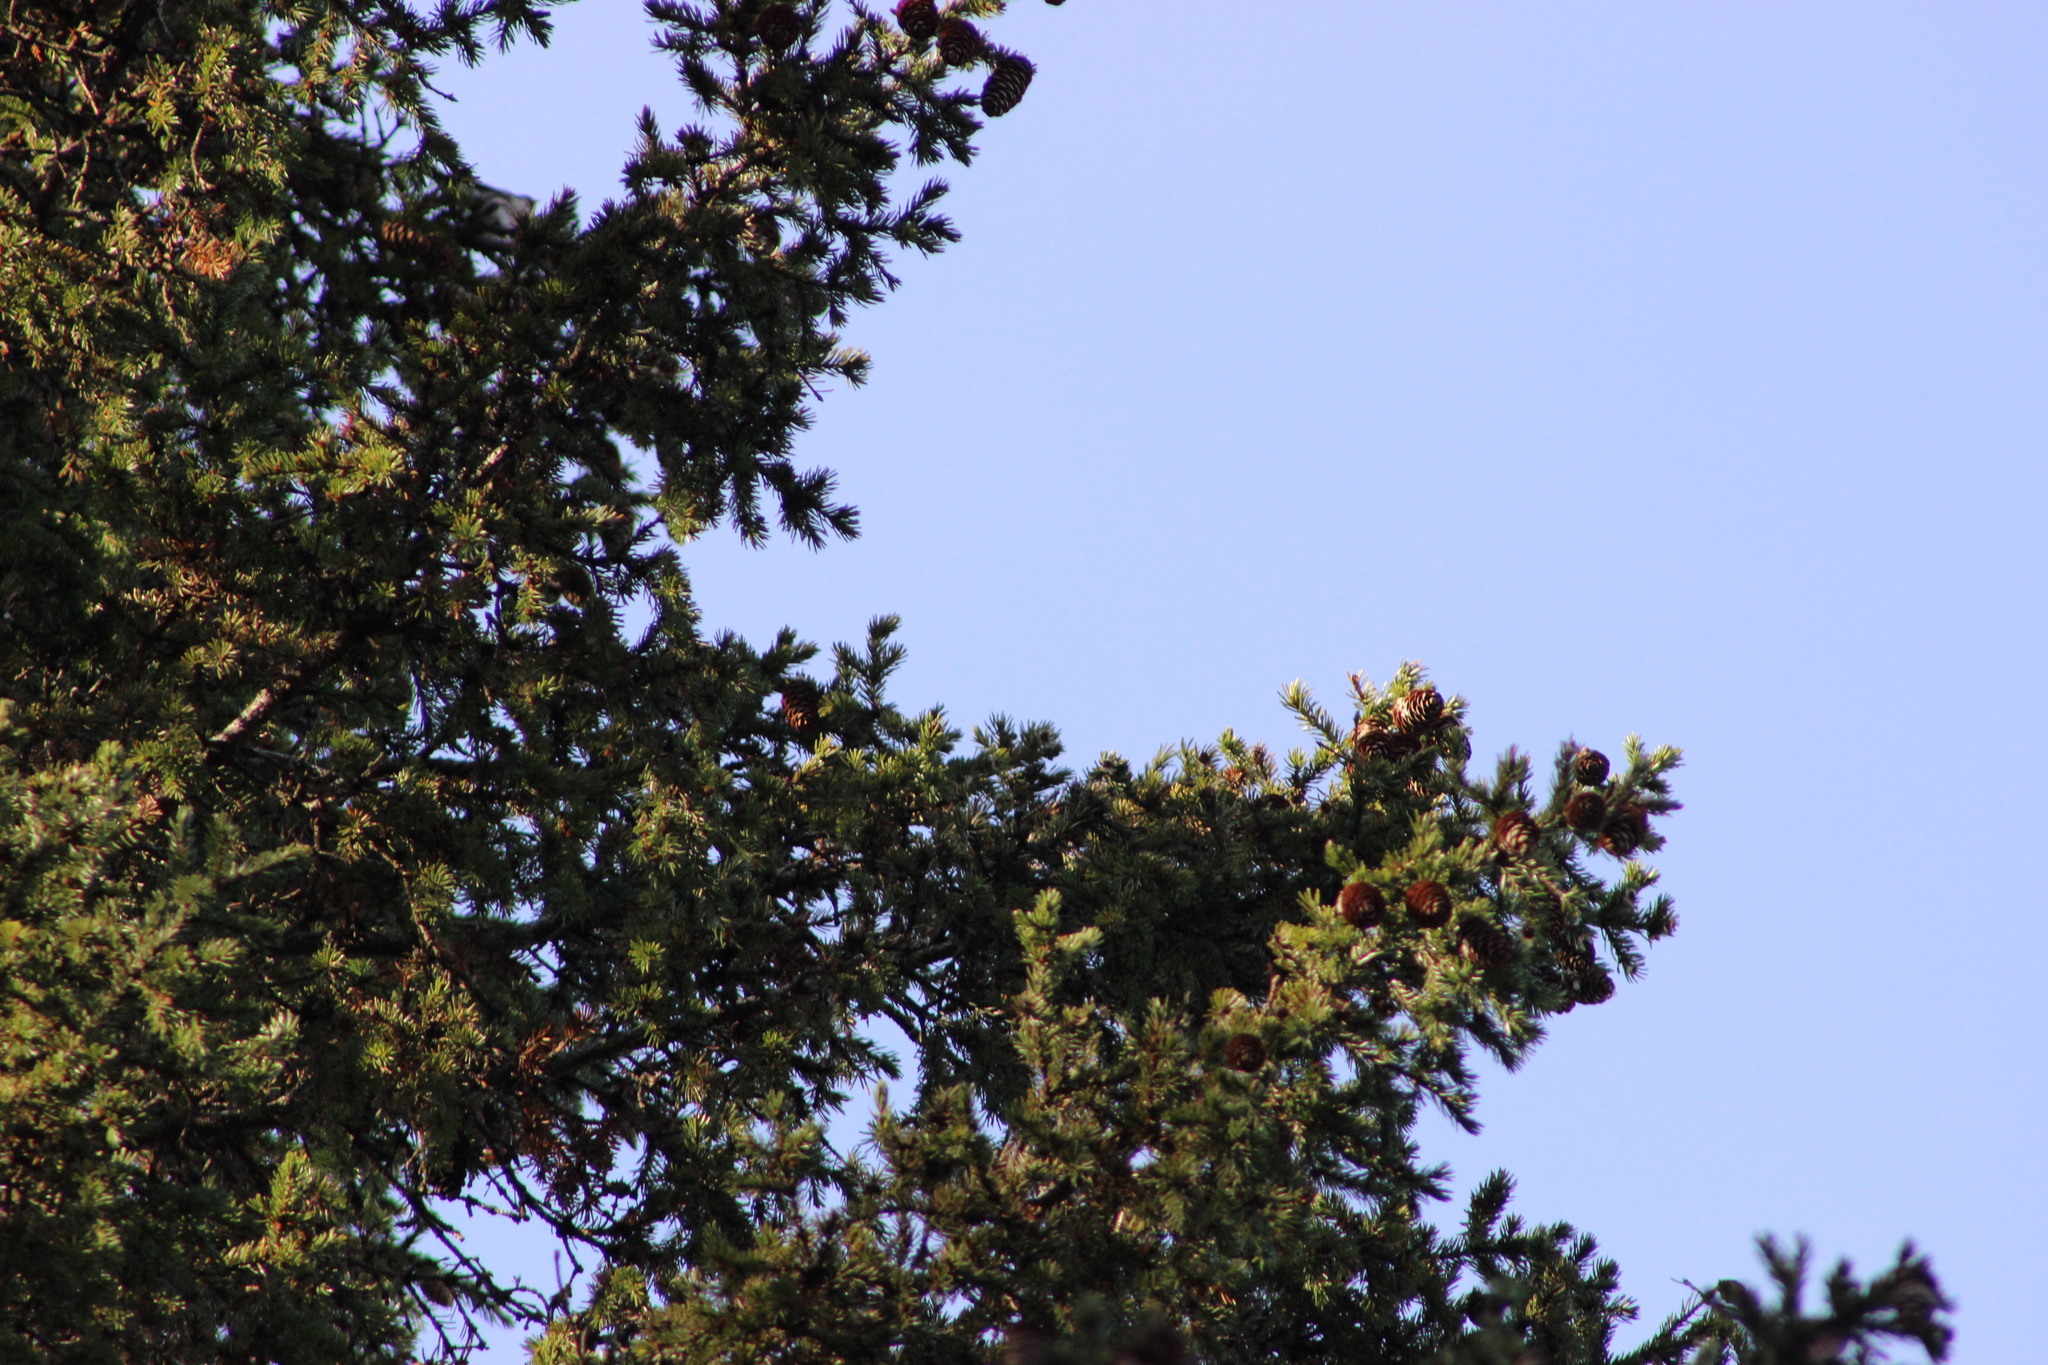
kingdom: Plantae
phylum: Tracheophyta
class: Pinopsida
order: Pinales
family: Pinaceae
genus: Picea
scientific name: Picea obovata
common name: Siberian spruce
